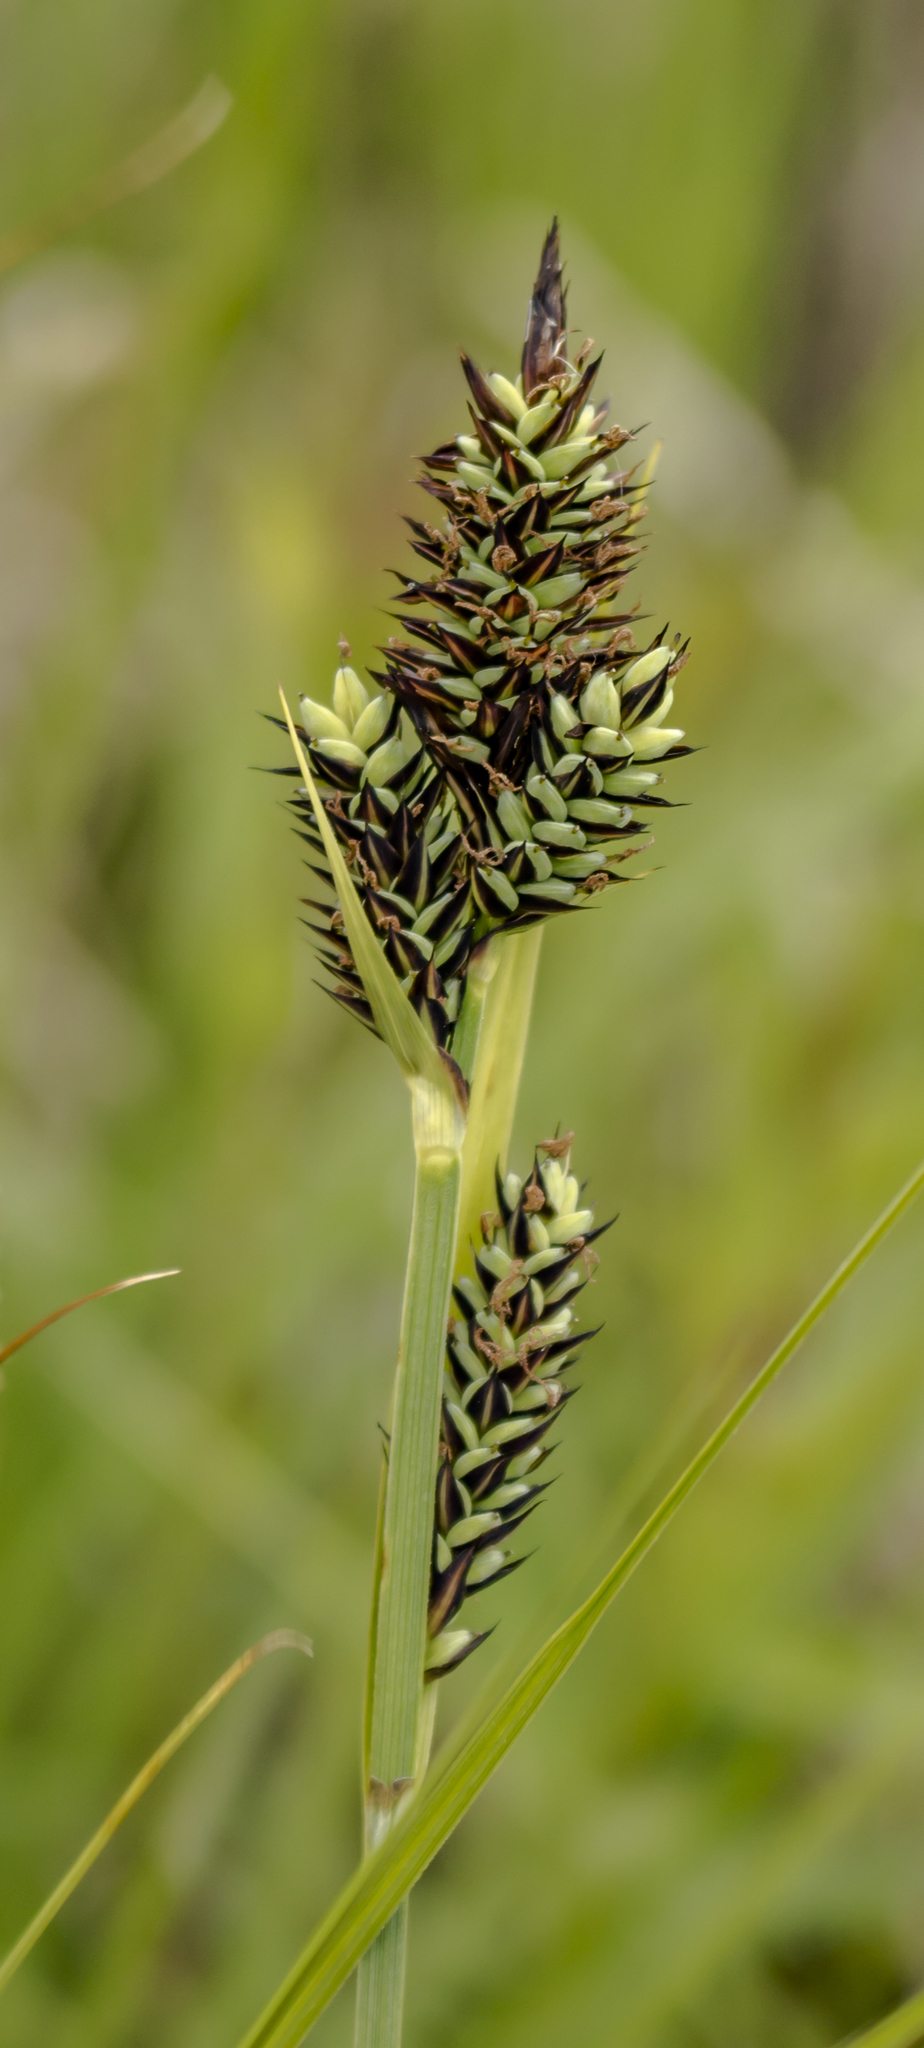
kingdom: Plantae
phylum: Tracheophyta
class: Liliopsida
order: Poales
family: Cyperaceae
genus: Carex
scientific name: Carex buxbaumii
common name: Club sedge
